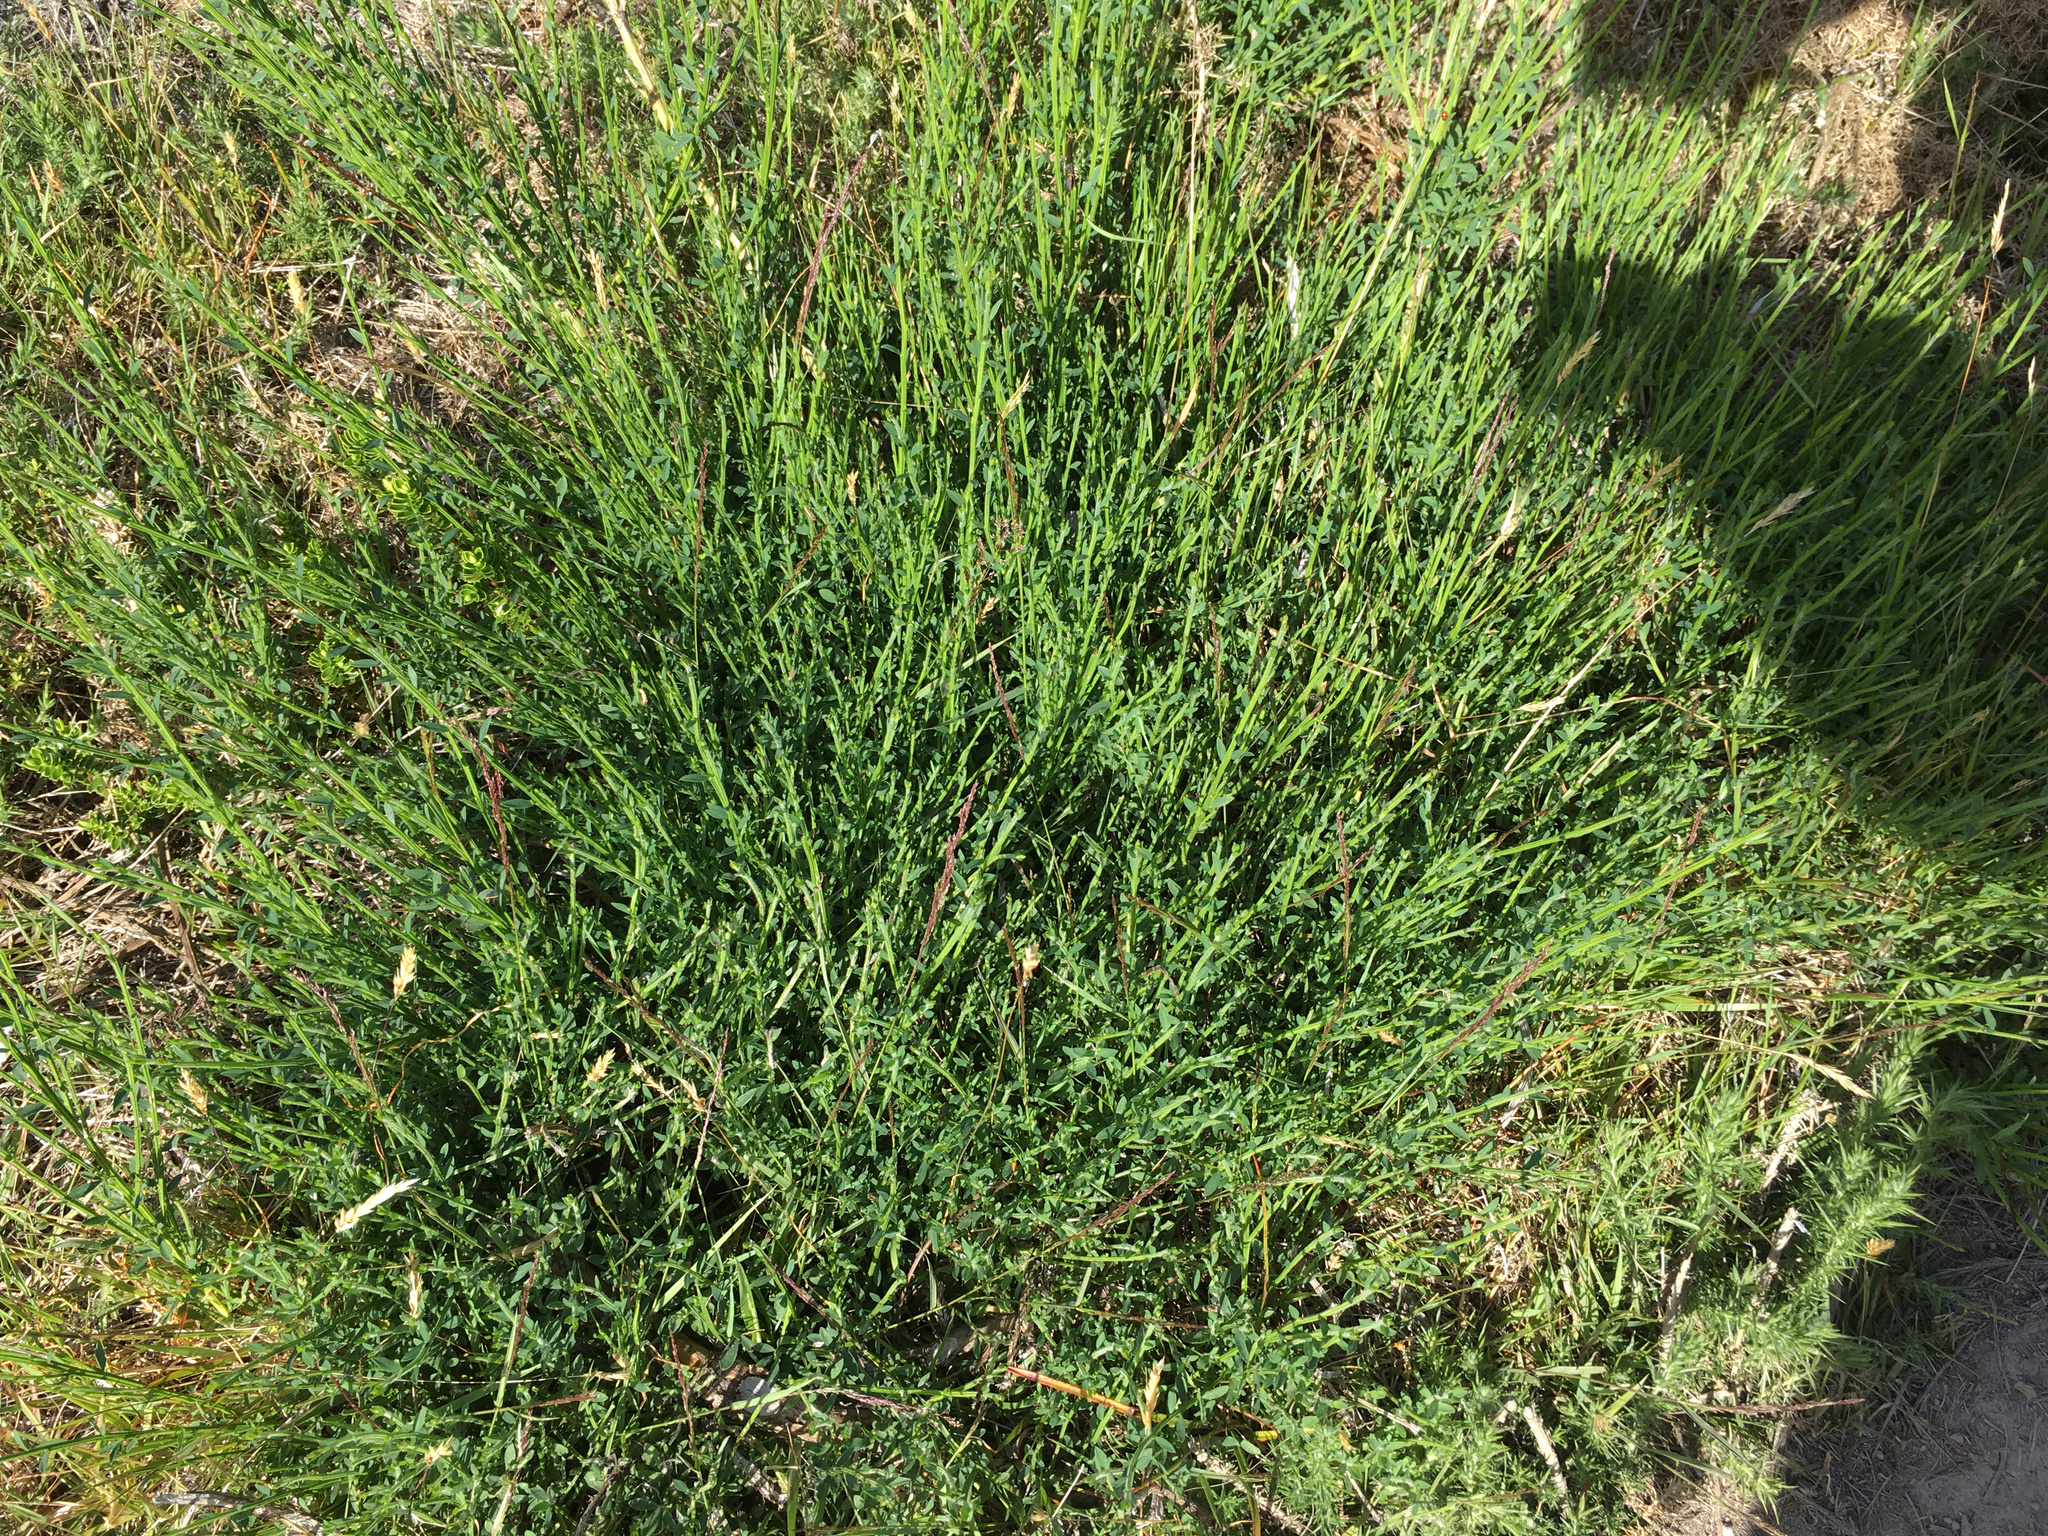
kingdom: Plantae
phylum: Tracheophyta
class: Magnoliopsida
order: Fabales
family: Fabaceae
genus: Cytisus
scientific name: Cytisus scoparius
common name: Scotch broom
